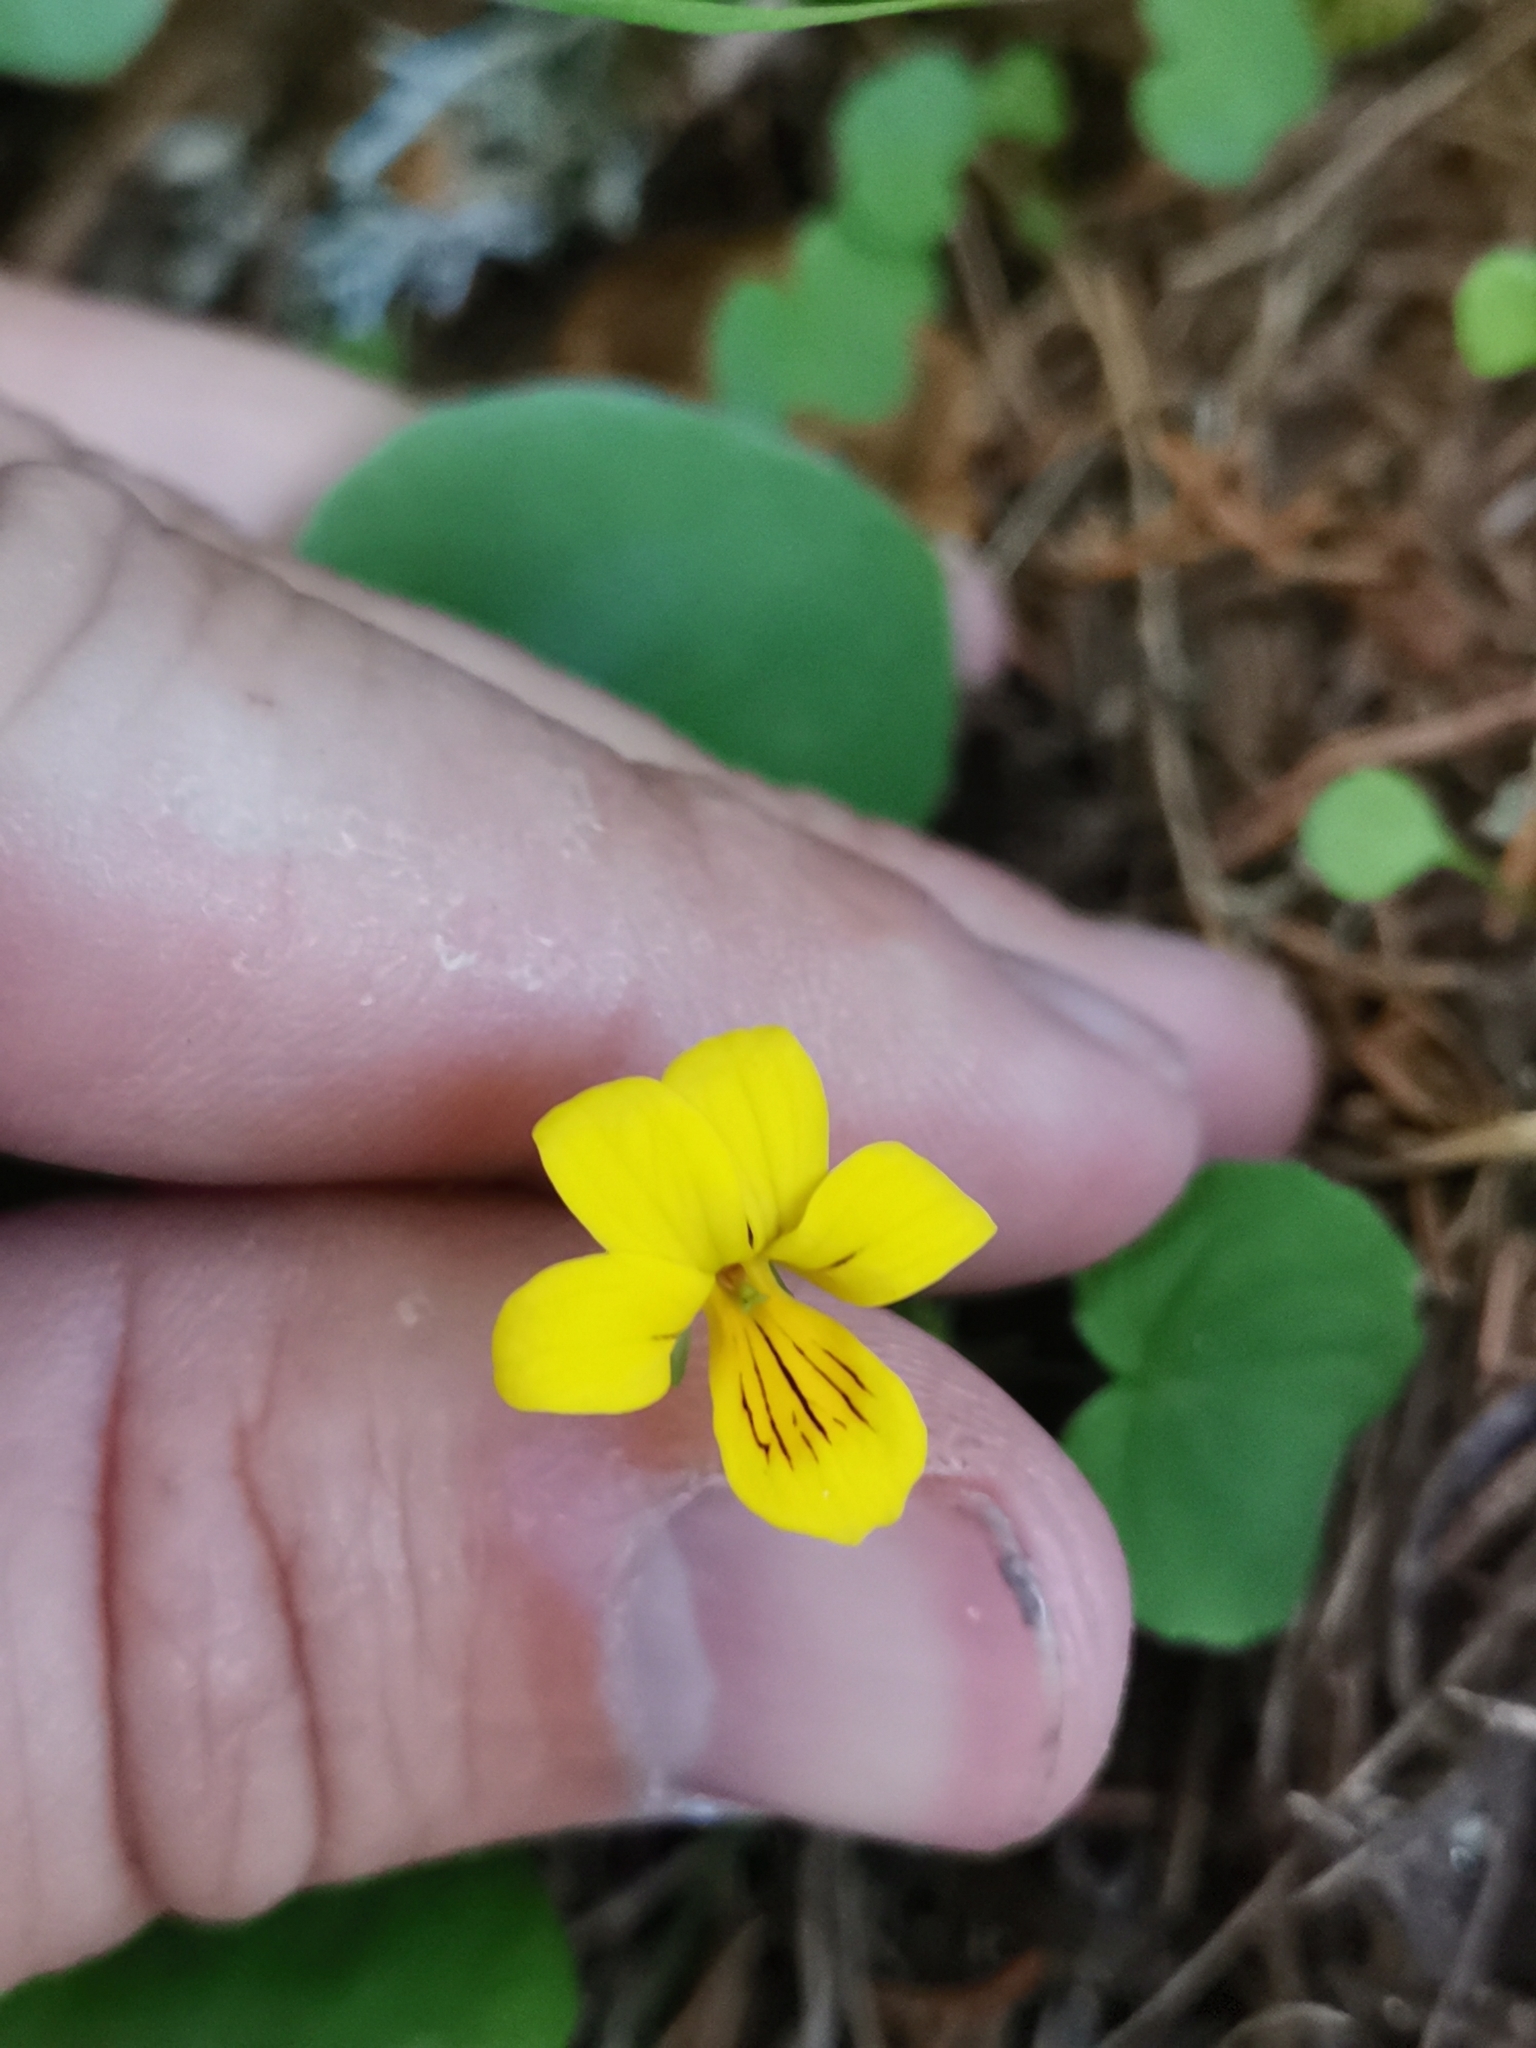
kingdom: Plantae
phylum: Tracheophyta
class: Magnoliopsida
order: Malpighiales
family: Violaceae
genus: Viola
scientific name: Viola biflora
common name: Alpine yellow violet
